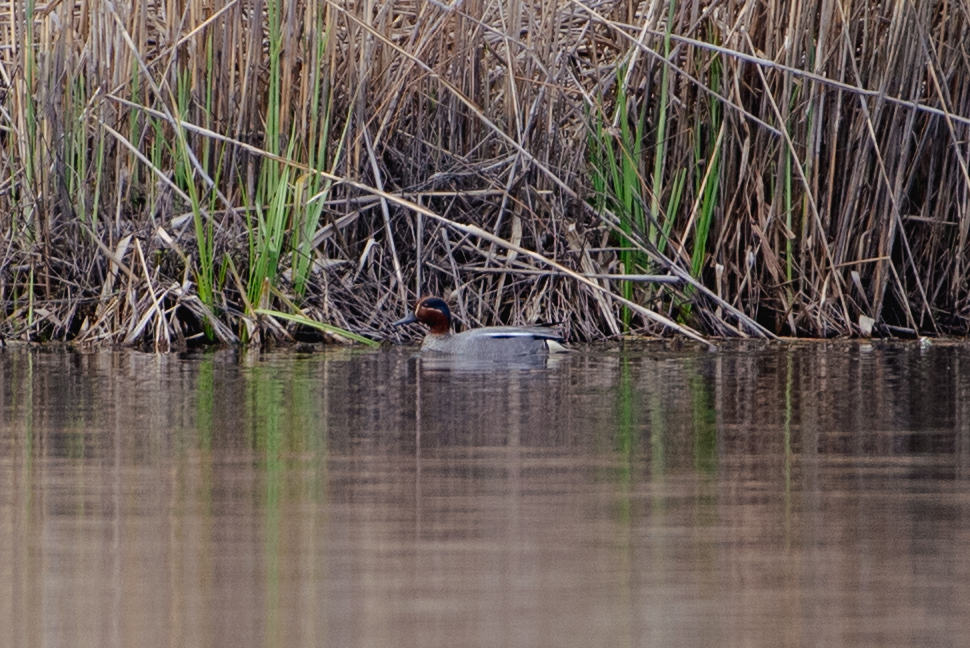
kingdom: Animalia
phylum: Chordata
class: Aves
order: Anseriformes
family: Anatidae
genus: Anas
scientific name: Anas crecca
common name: Eurasian teal
